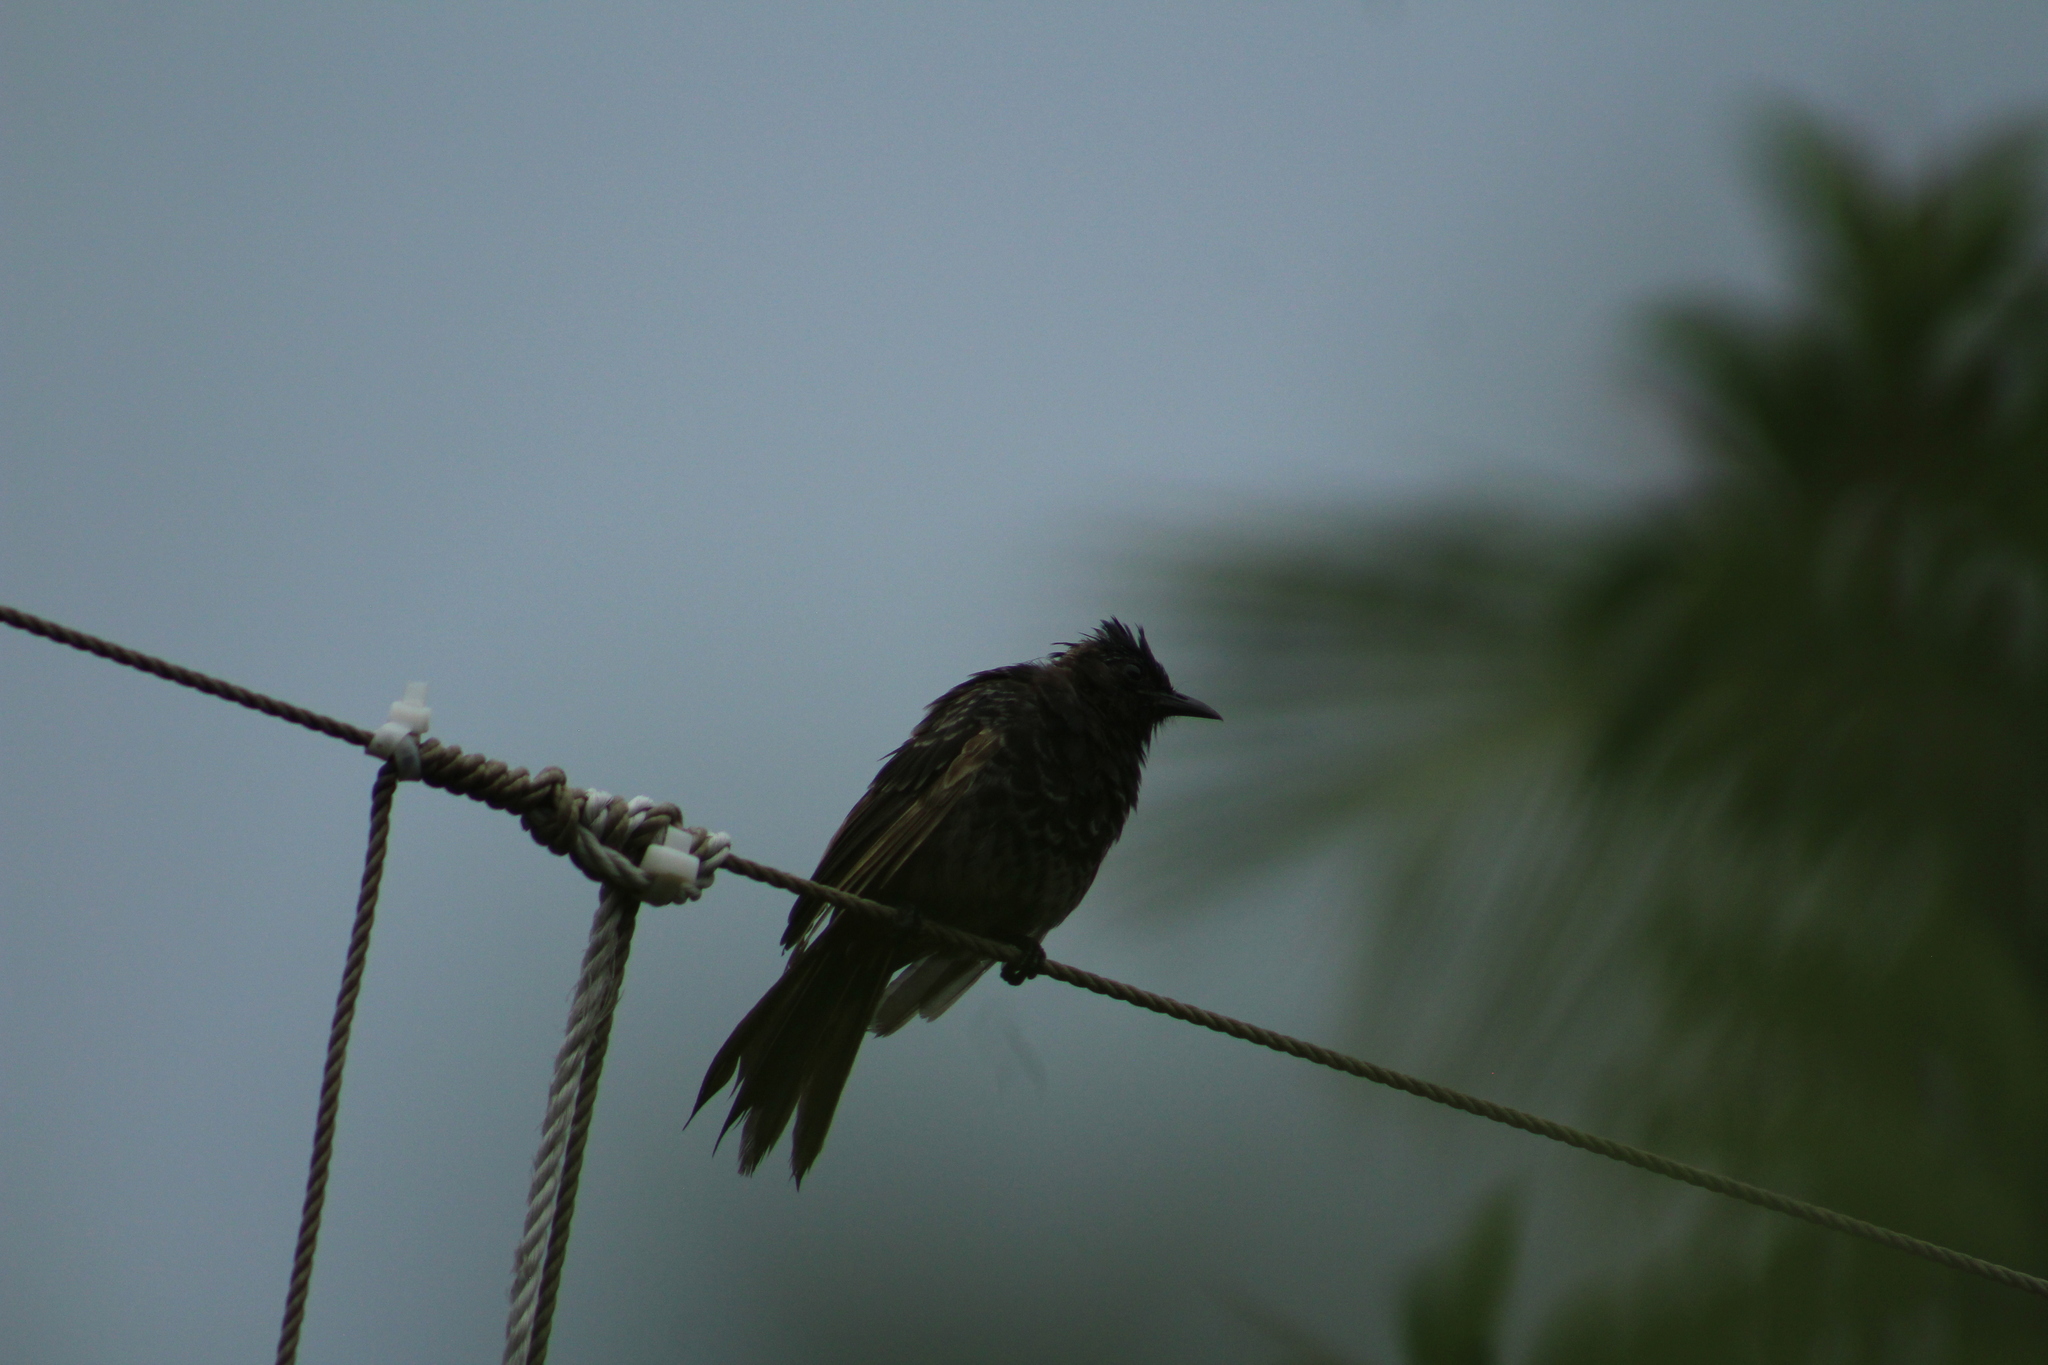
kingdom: Animalia
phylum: Chordata
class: Aves
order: Passeriformes
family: Pycnonotidae
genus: Pycnonotus
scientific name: Pycnonotus cafer
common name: Red-vented bulbul
